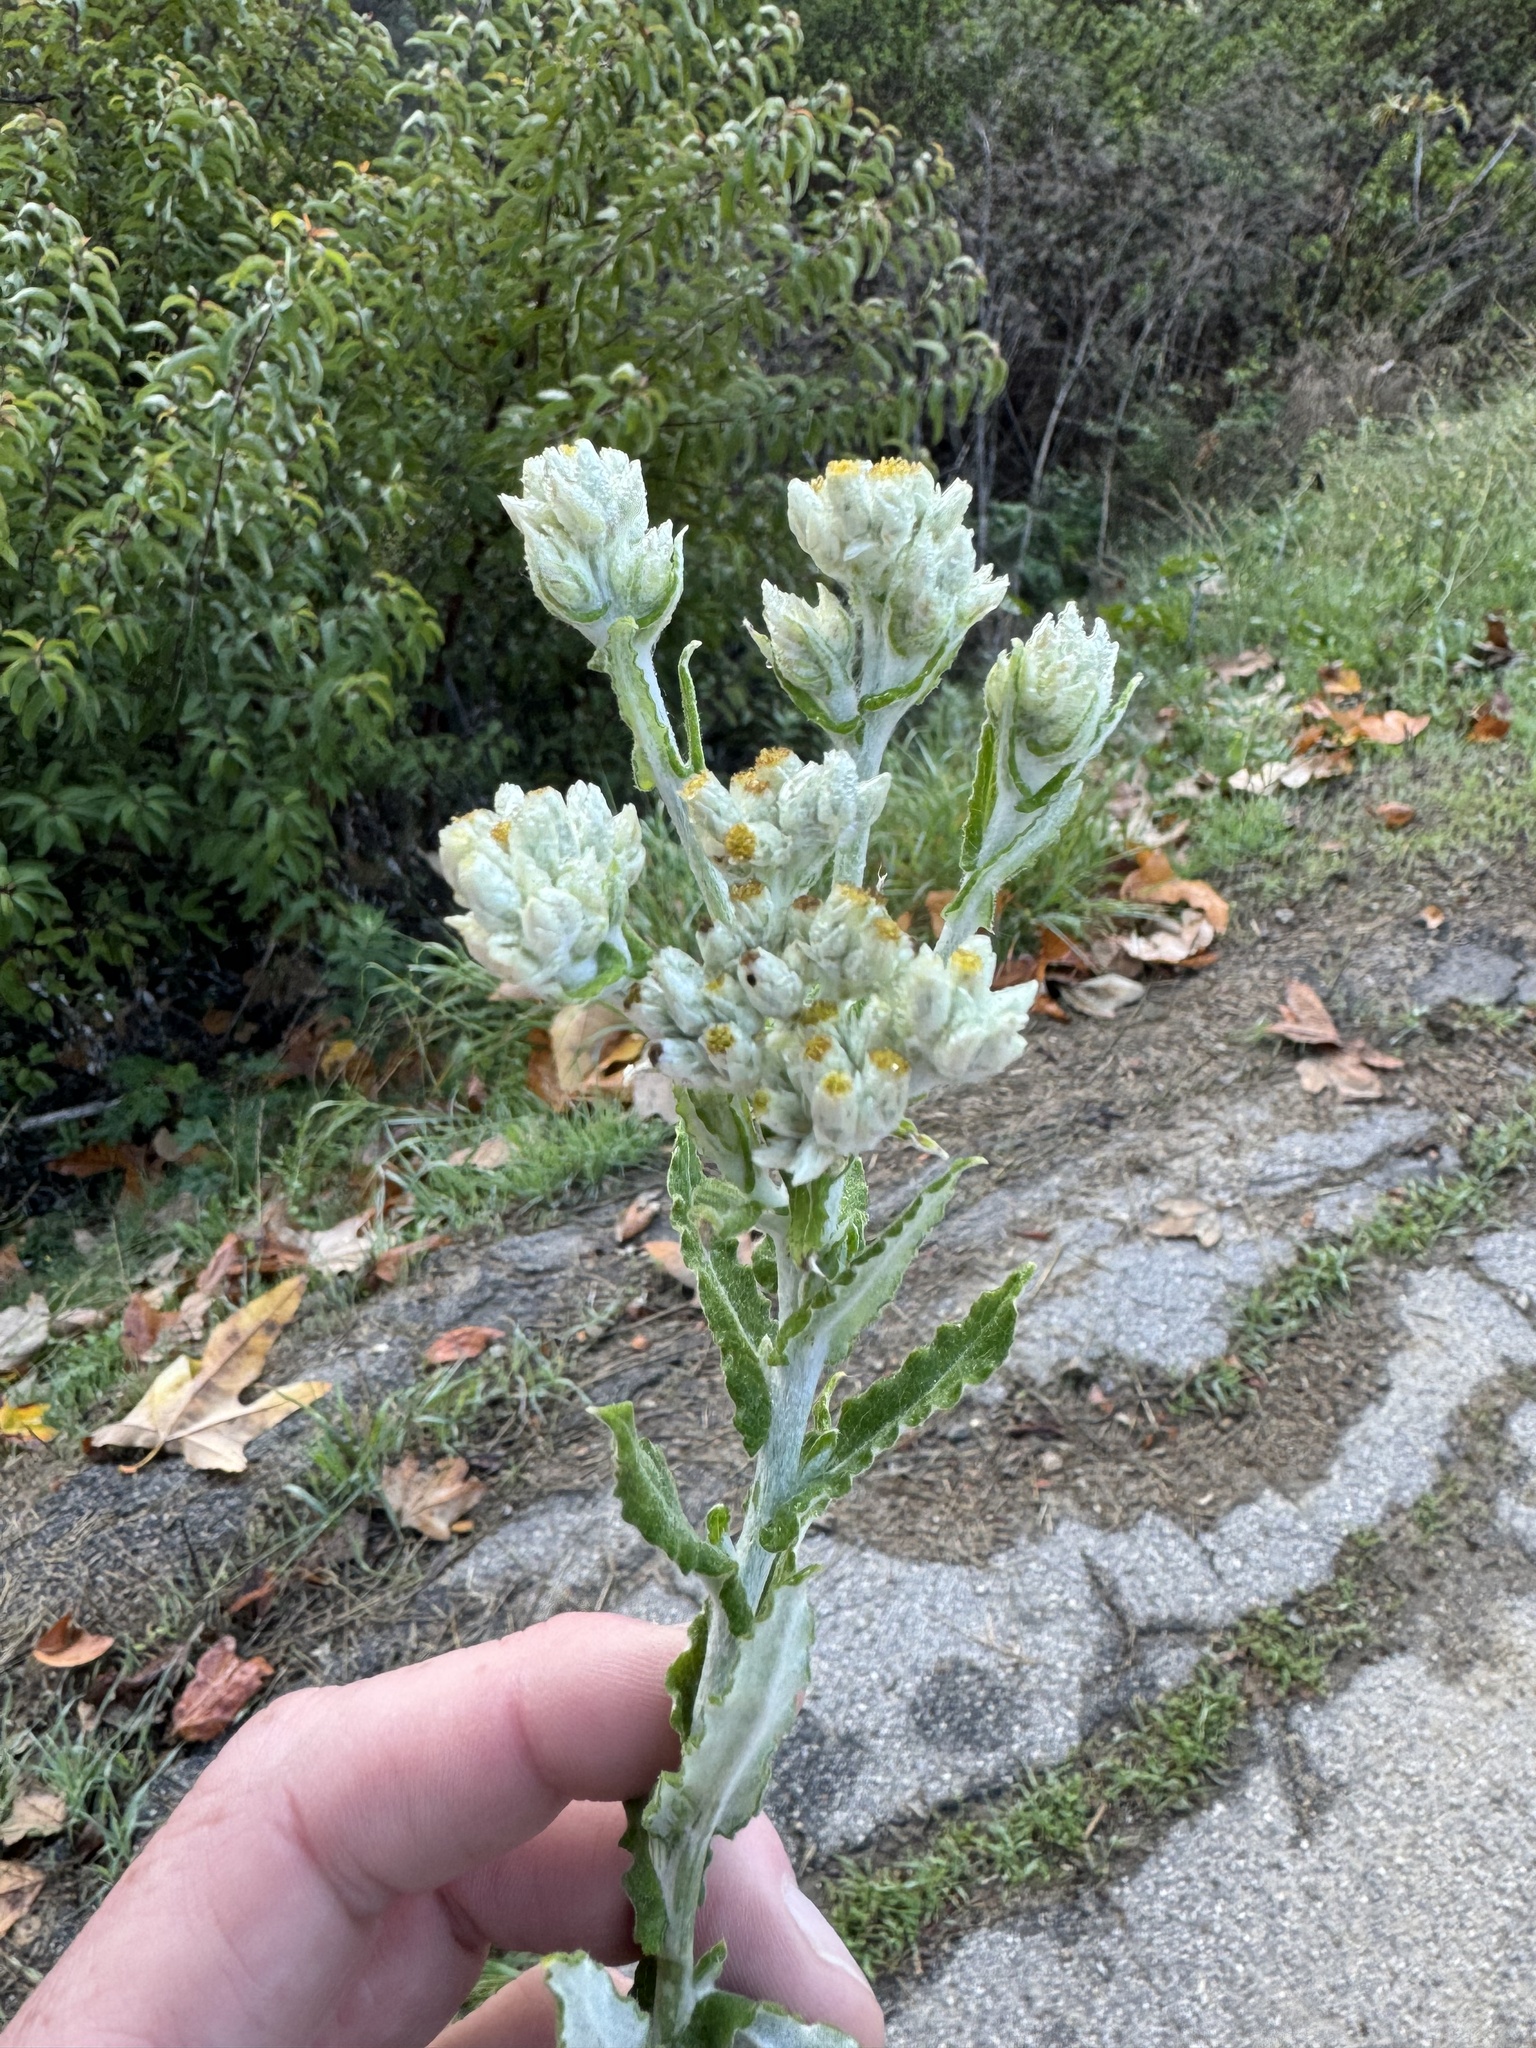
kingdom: Plantae
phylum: Tracheophyta
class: Magnoliopsida
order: Asterales
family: Asteraceae
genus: Pseudognaphalium
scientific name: Pseudognaphalium biolettii
